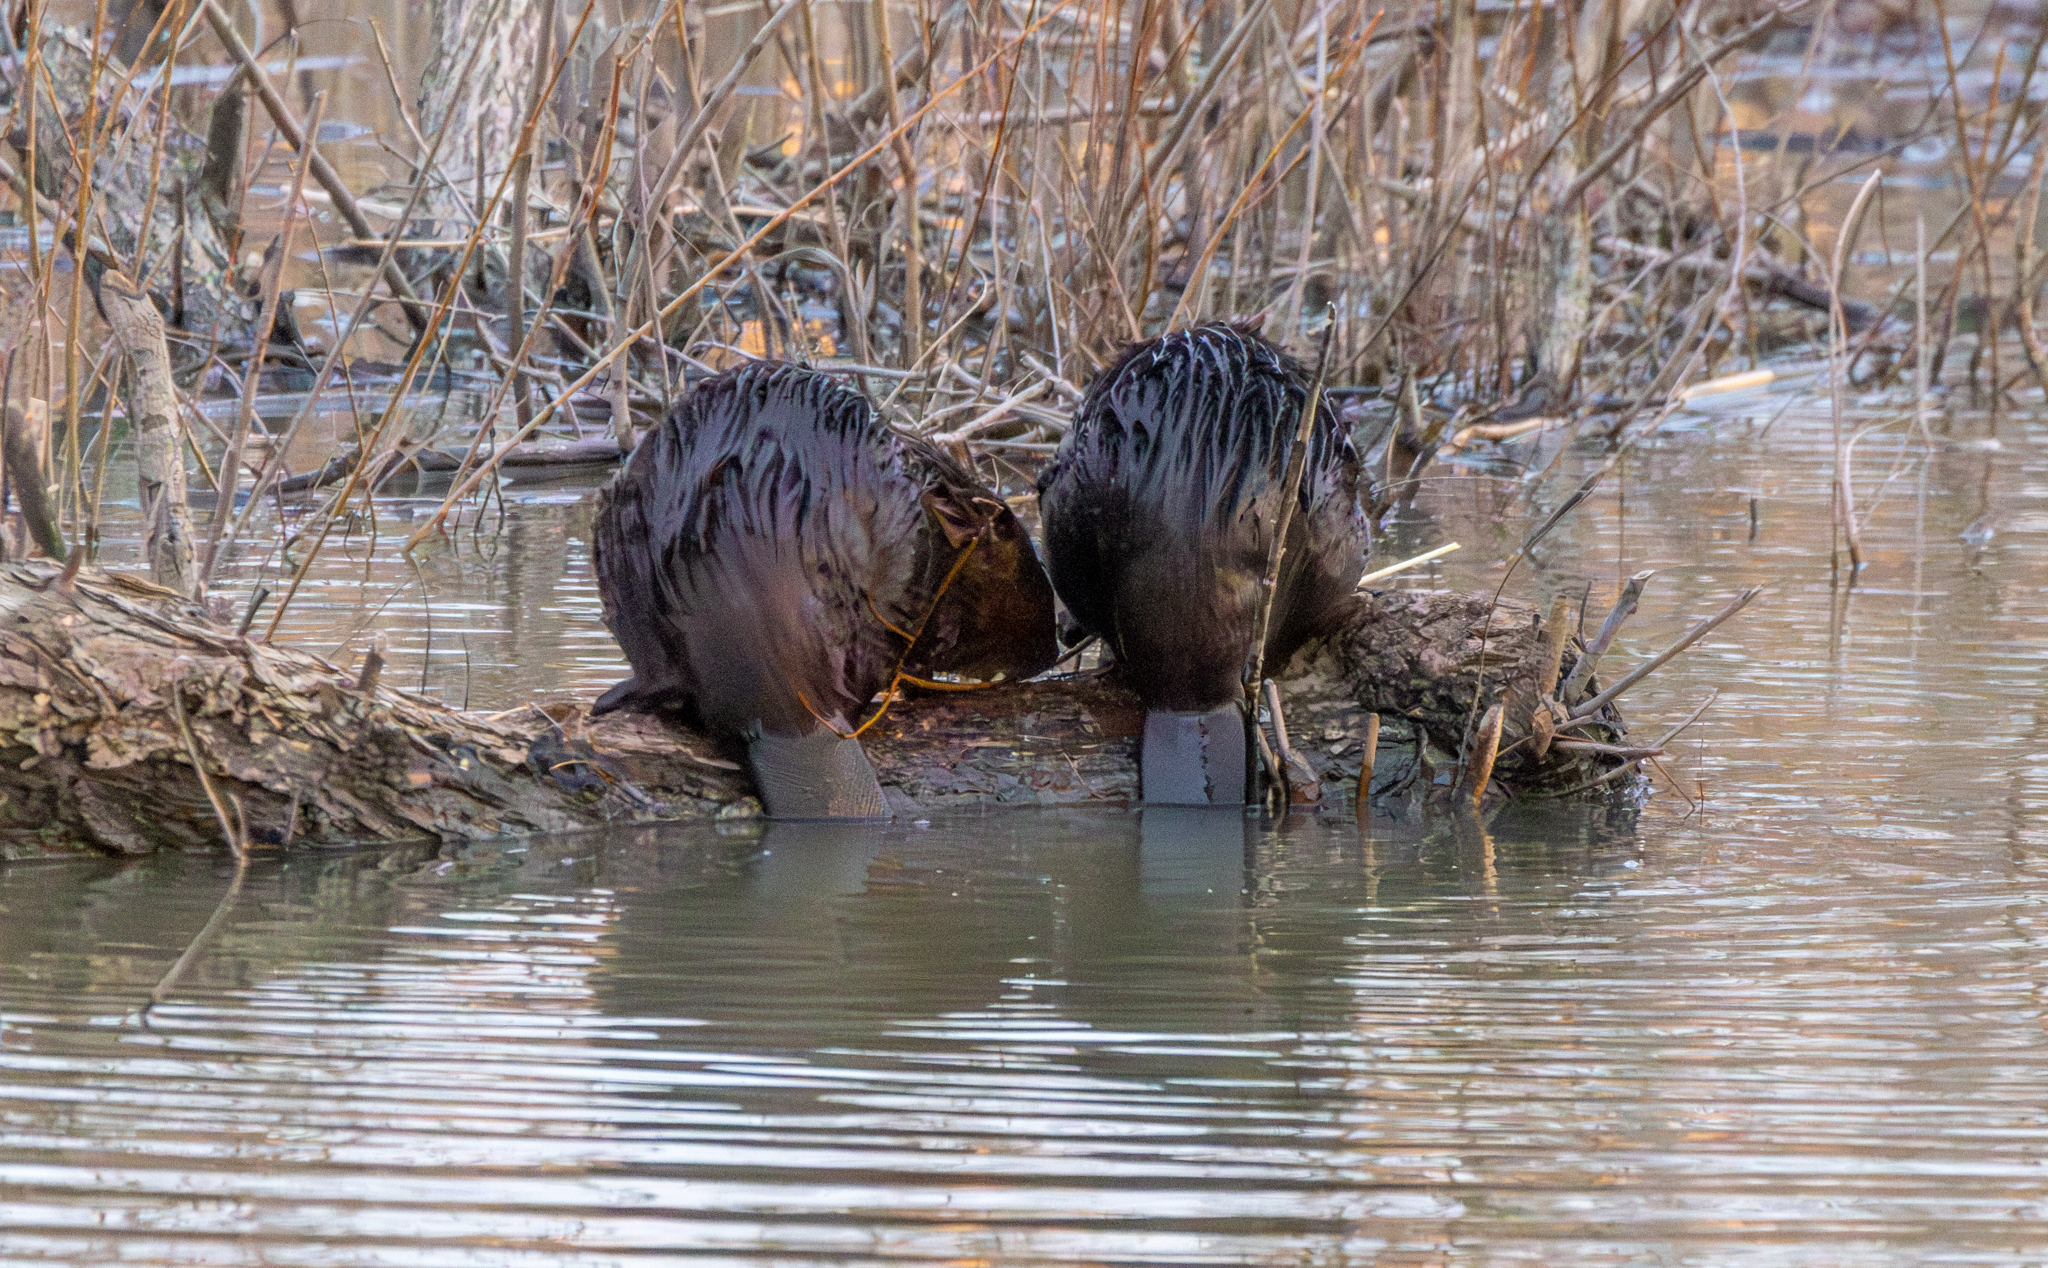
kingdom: Animalia
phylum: Chordata
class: Mammalia
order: Rodentia
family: Castoridae
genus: Castor
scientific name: Castor canadensis
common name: American beaver
